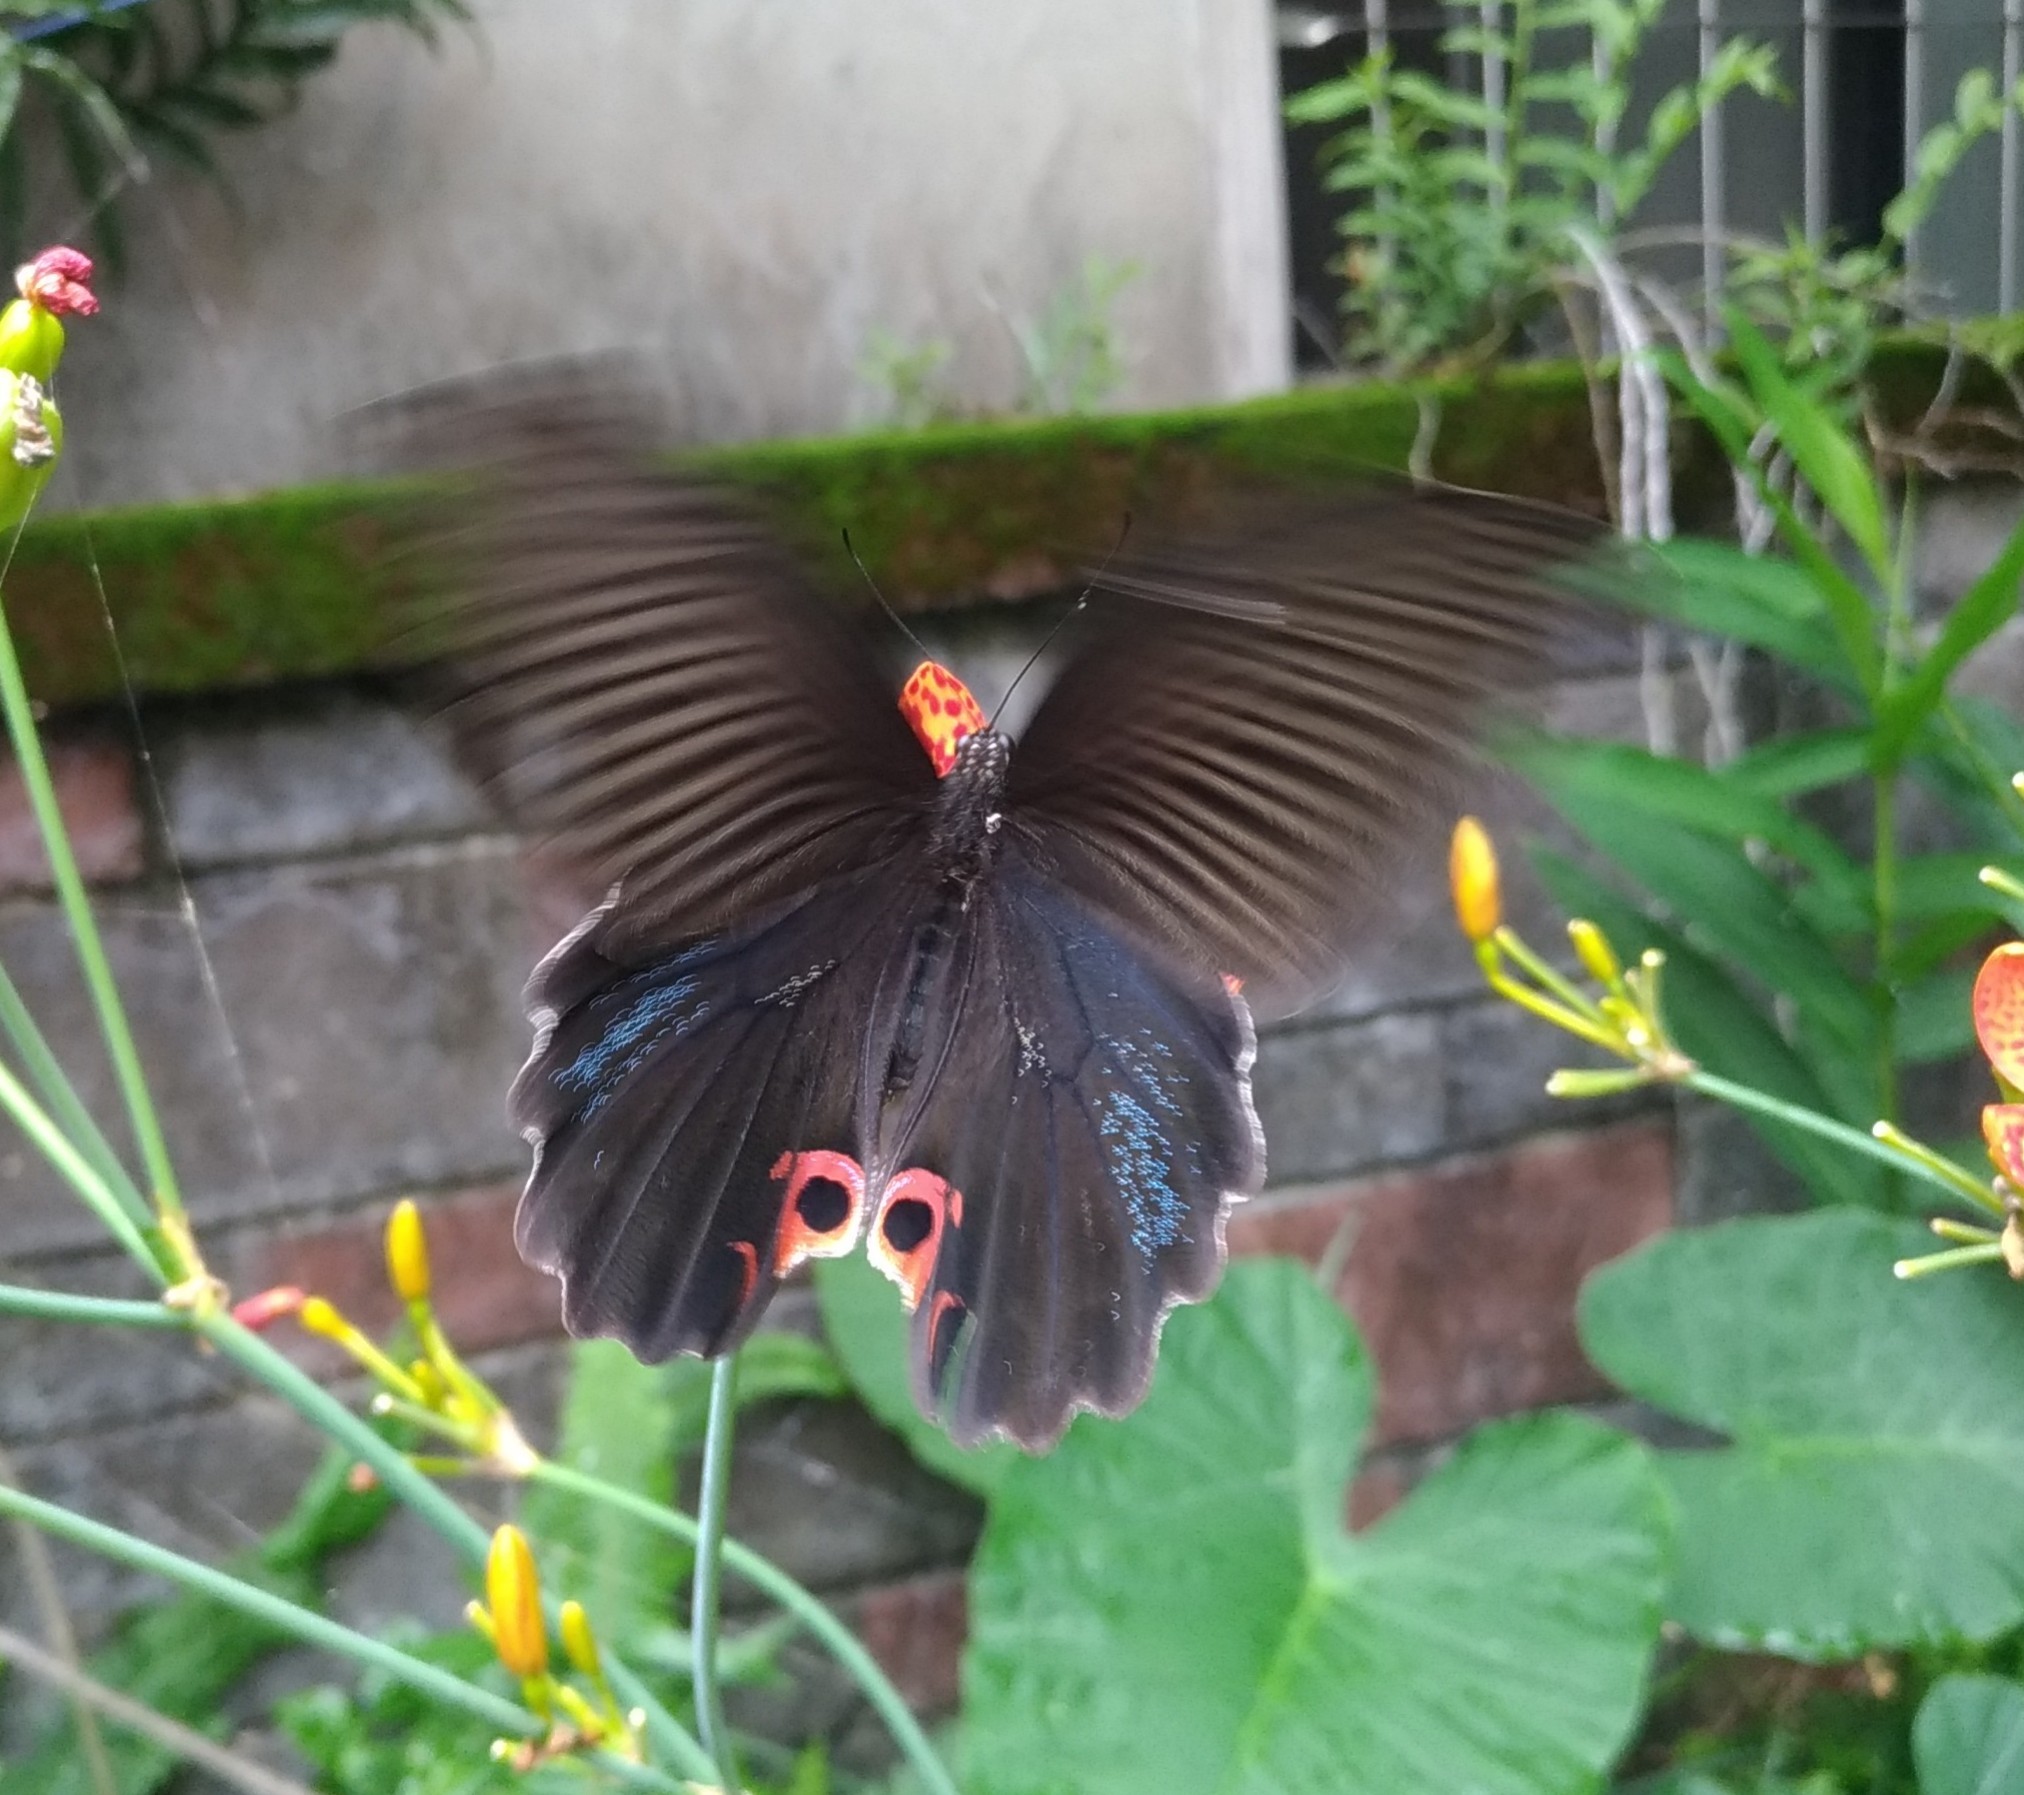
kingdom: Animalia
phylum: Arthropoda
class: Insecta
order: Lepidoptera
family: Papilionidae
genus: Papilio
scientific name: Papilio protenor
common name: Spangle
